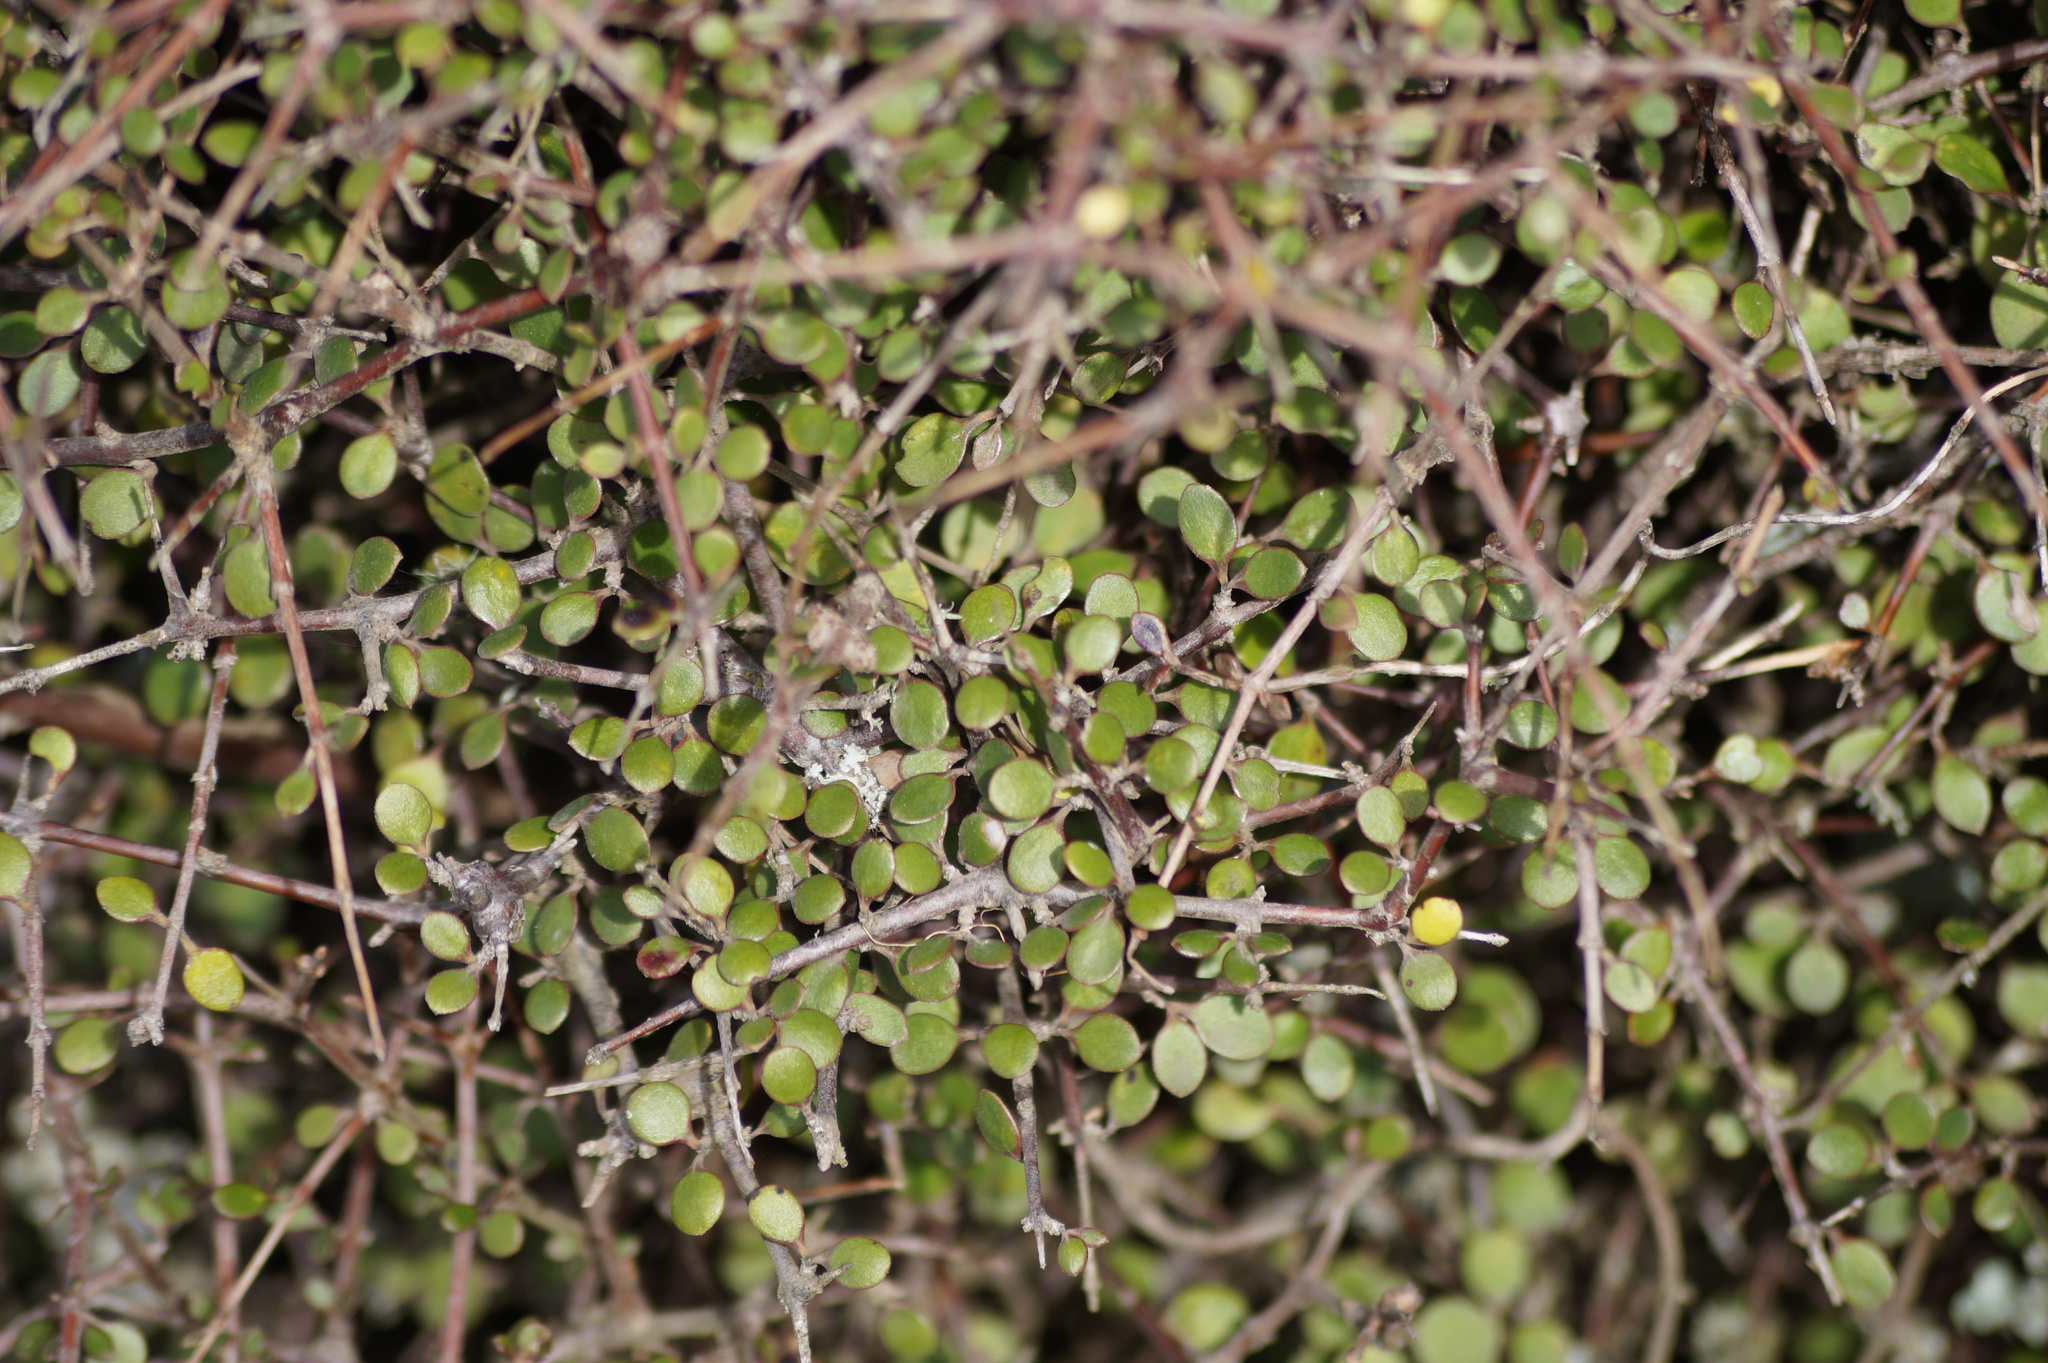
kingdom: Plantae
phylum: Tracheophyta
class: Magnoliopsida
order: Gentianales
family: Rubiaceae
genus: Coprosma
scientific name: Coprosma crassifolia
